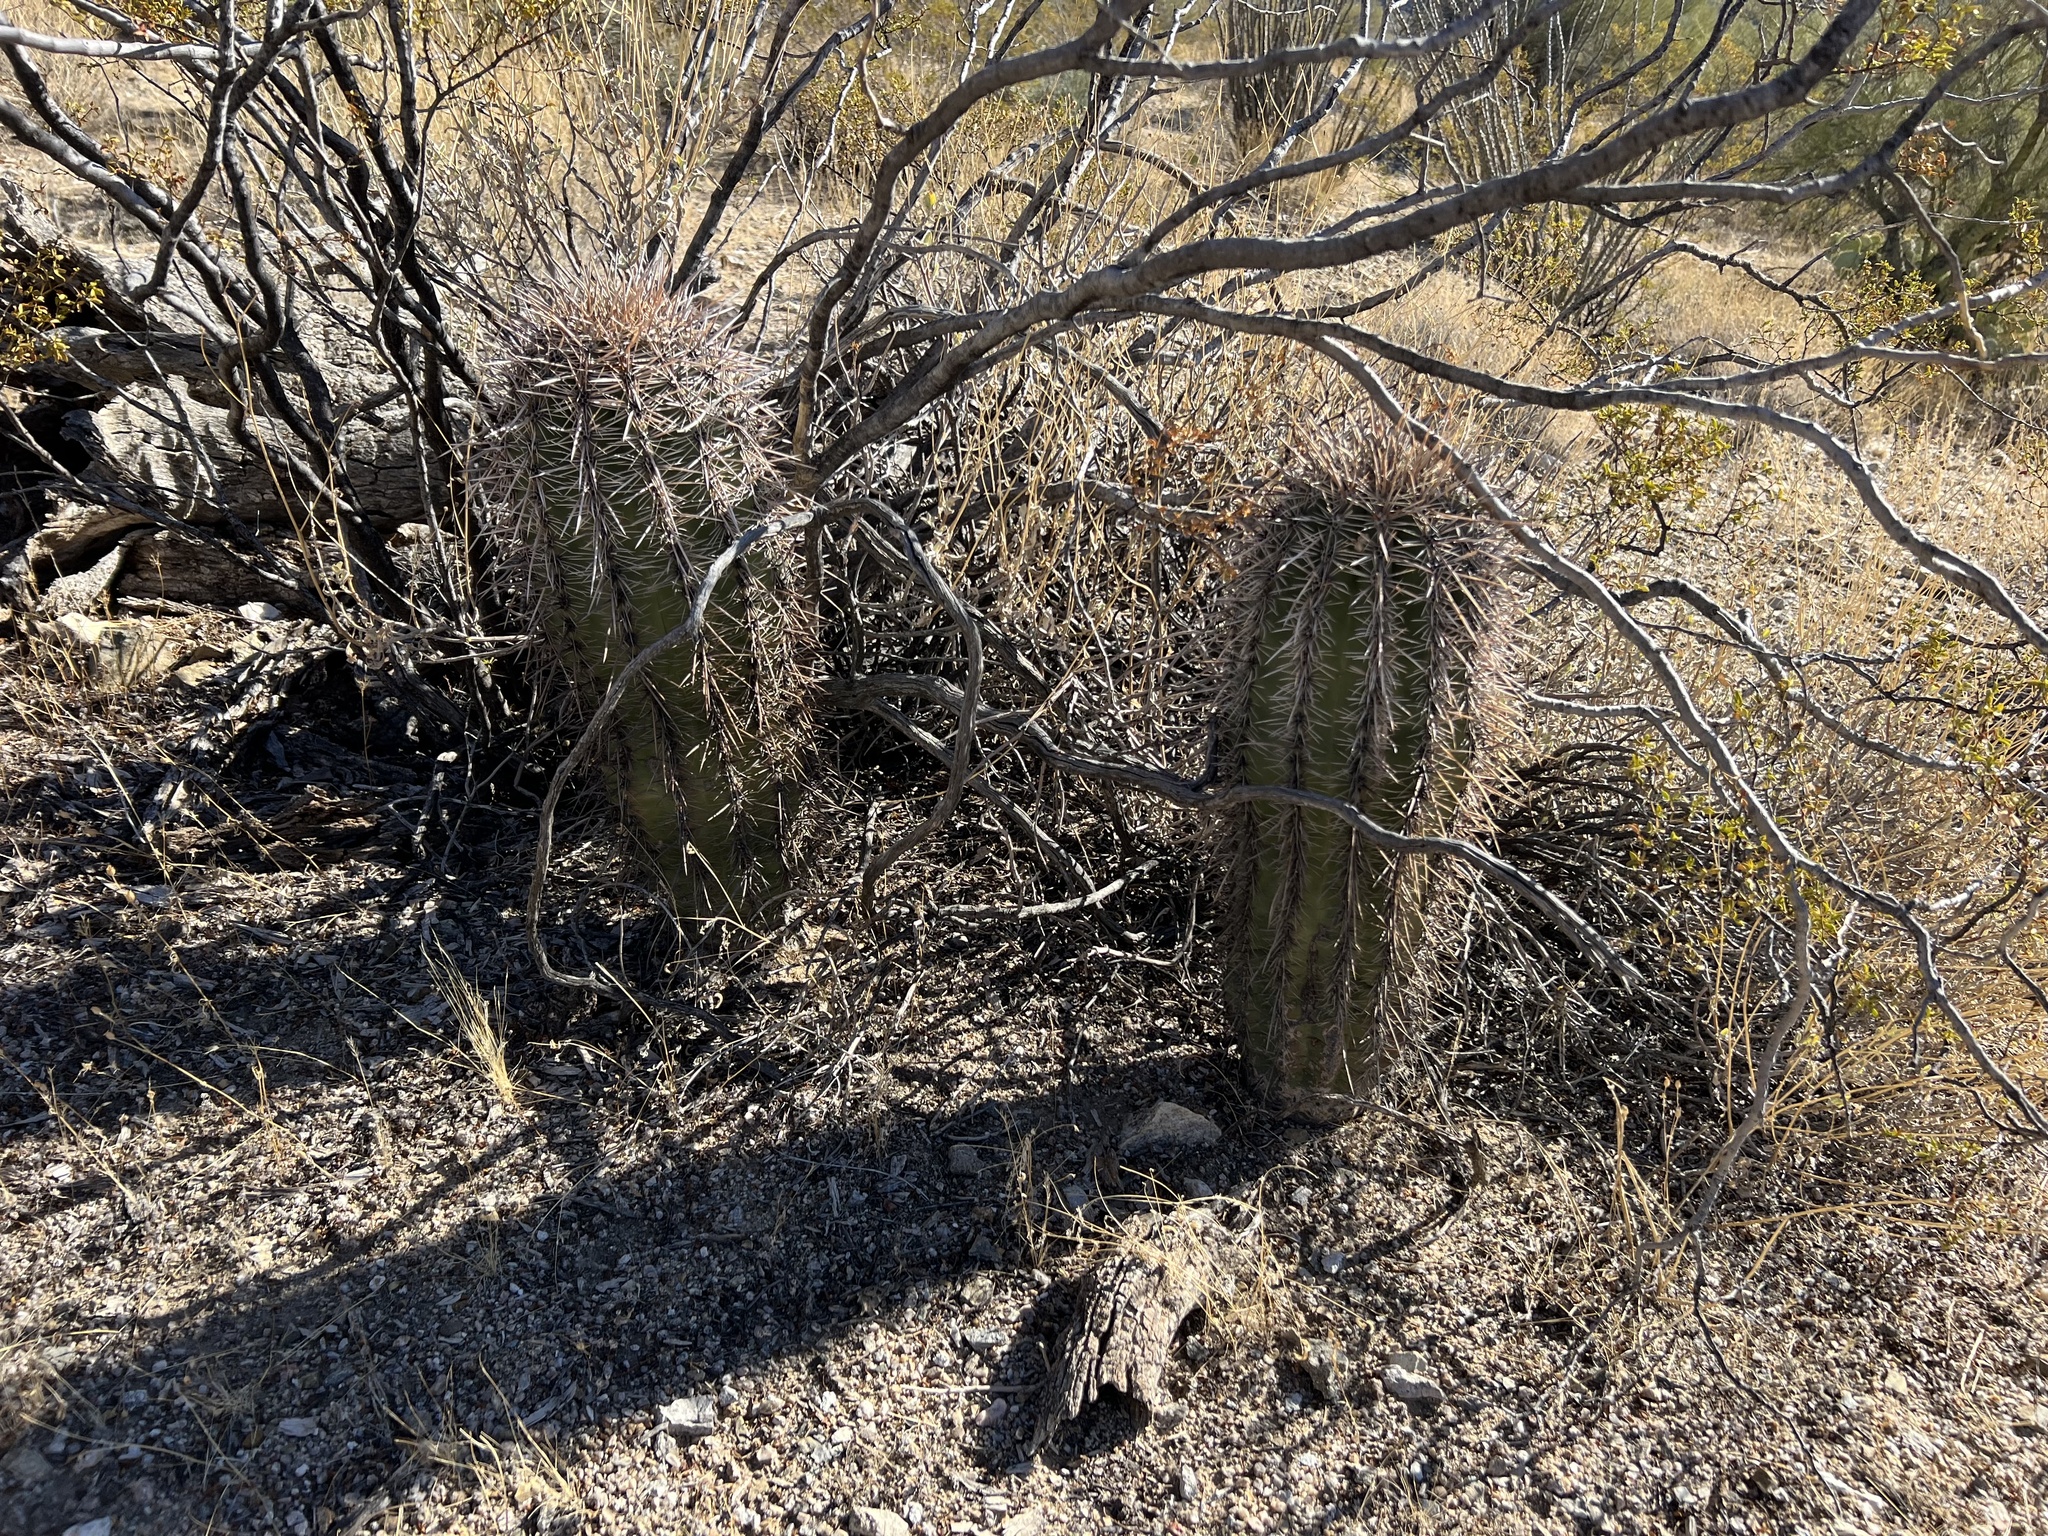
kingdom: Plantae
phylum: Tracheophyta
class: Magnoliopsida
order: Caryophyllales
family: Cactaceae
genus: Carnegiea
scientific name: Carnegiea gigantea
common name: Saguaro
